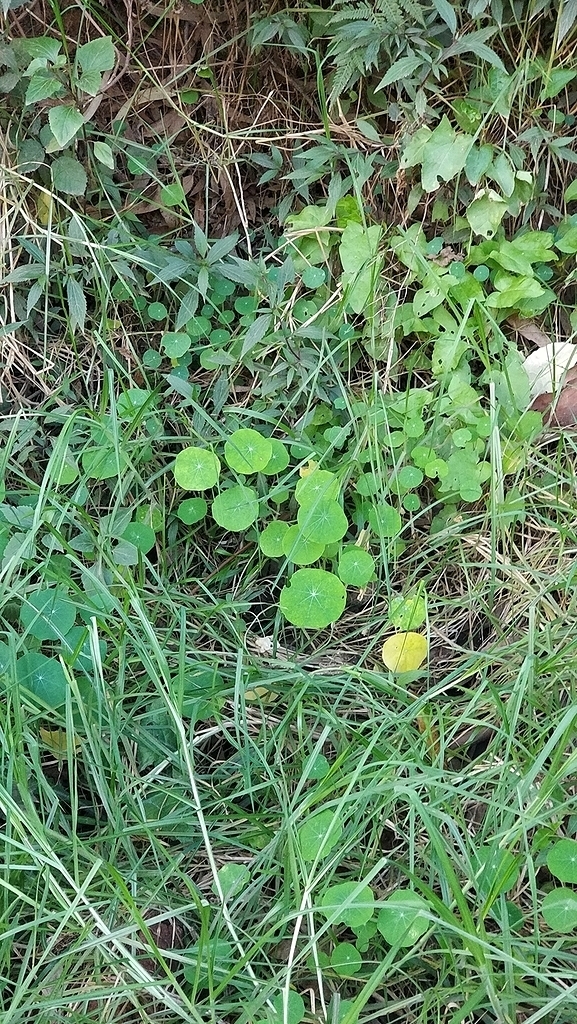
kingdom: Plantae
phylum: Tracheophyta
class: Magnoliopsida
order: Brassicales
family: Tropaeolaceae
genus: Tropaeolum
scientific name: Tropaeolum majus
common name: Nasturtium
